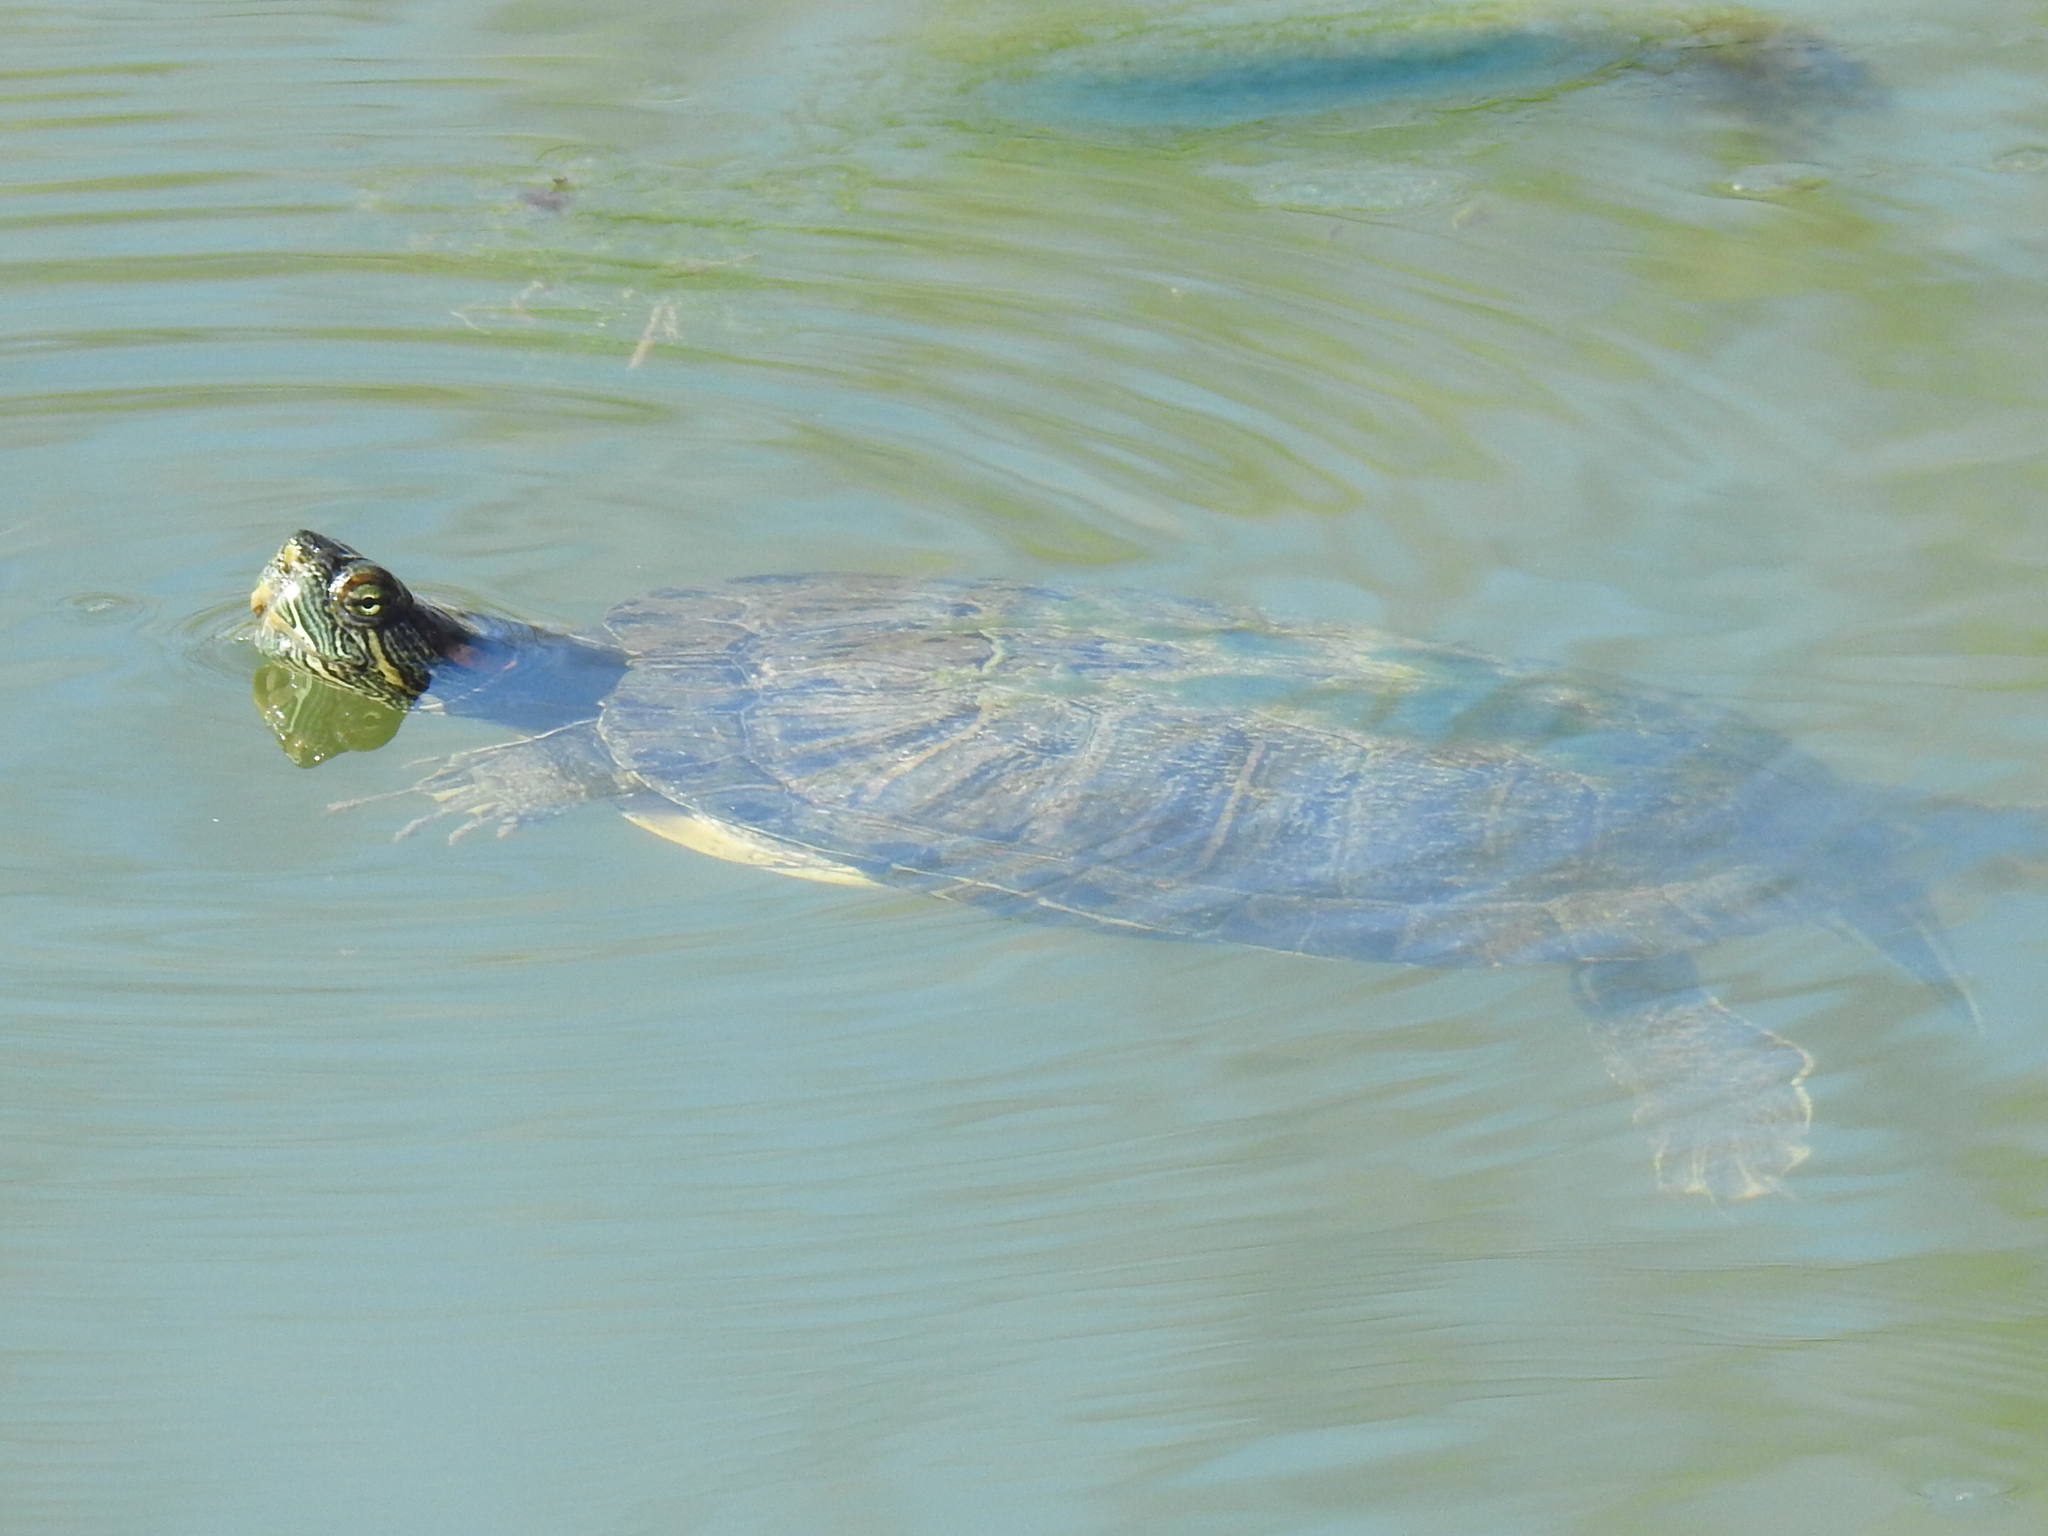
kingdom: Animalia
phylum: Chordata
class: Testudines
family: Emydidae
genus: Trachemys
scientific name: Trachemys scripta
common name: Slider
